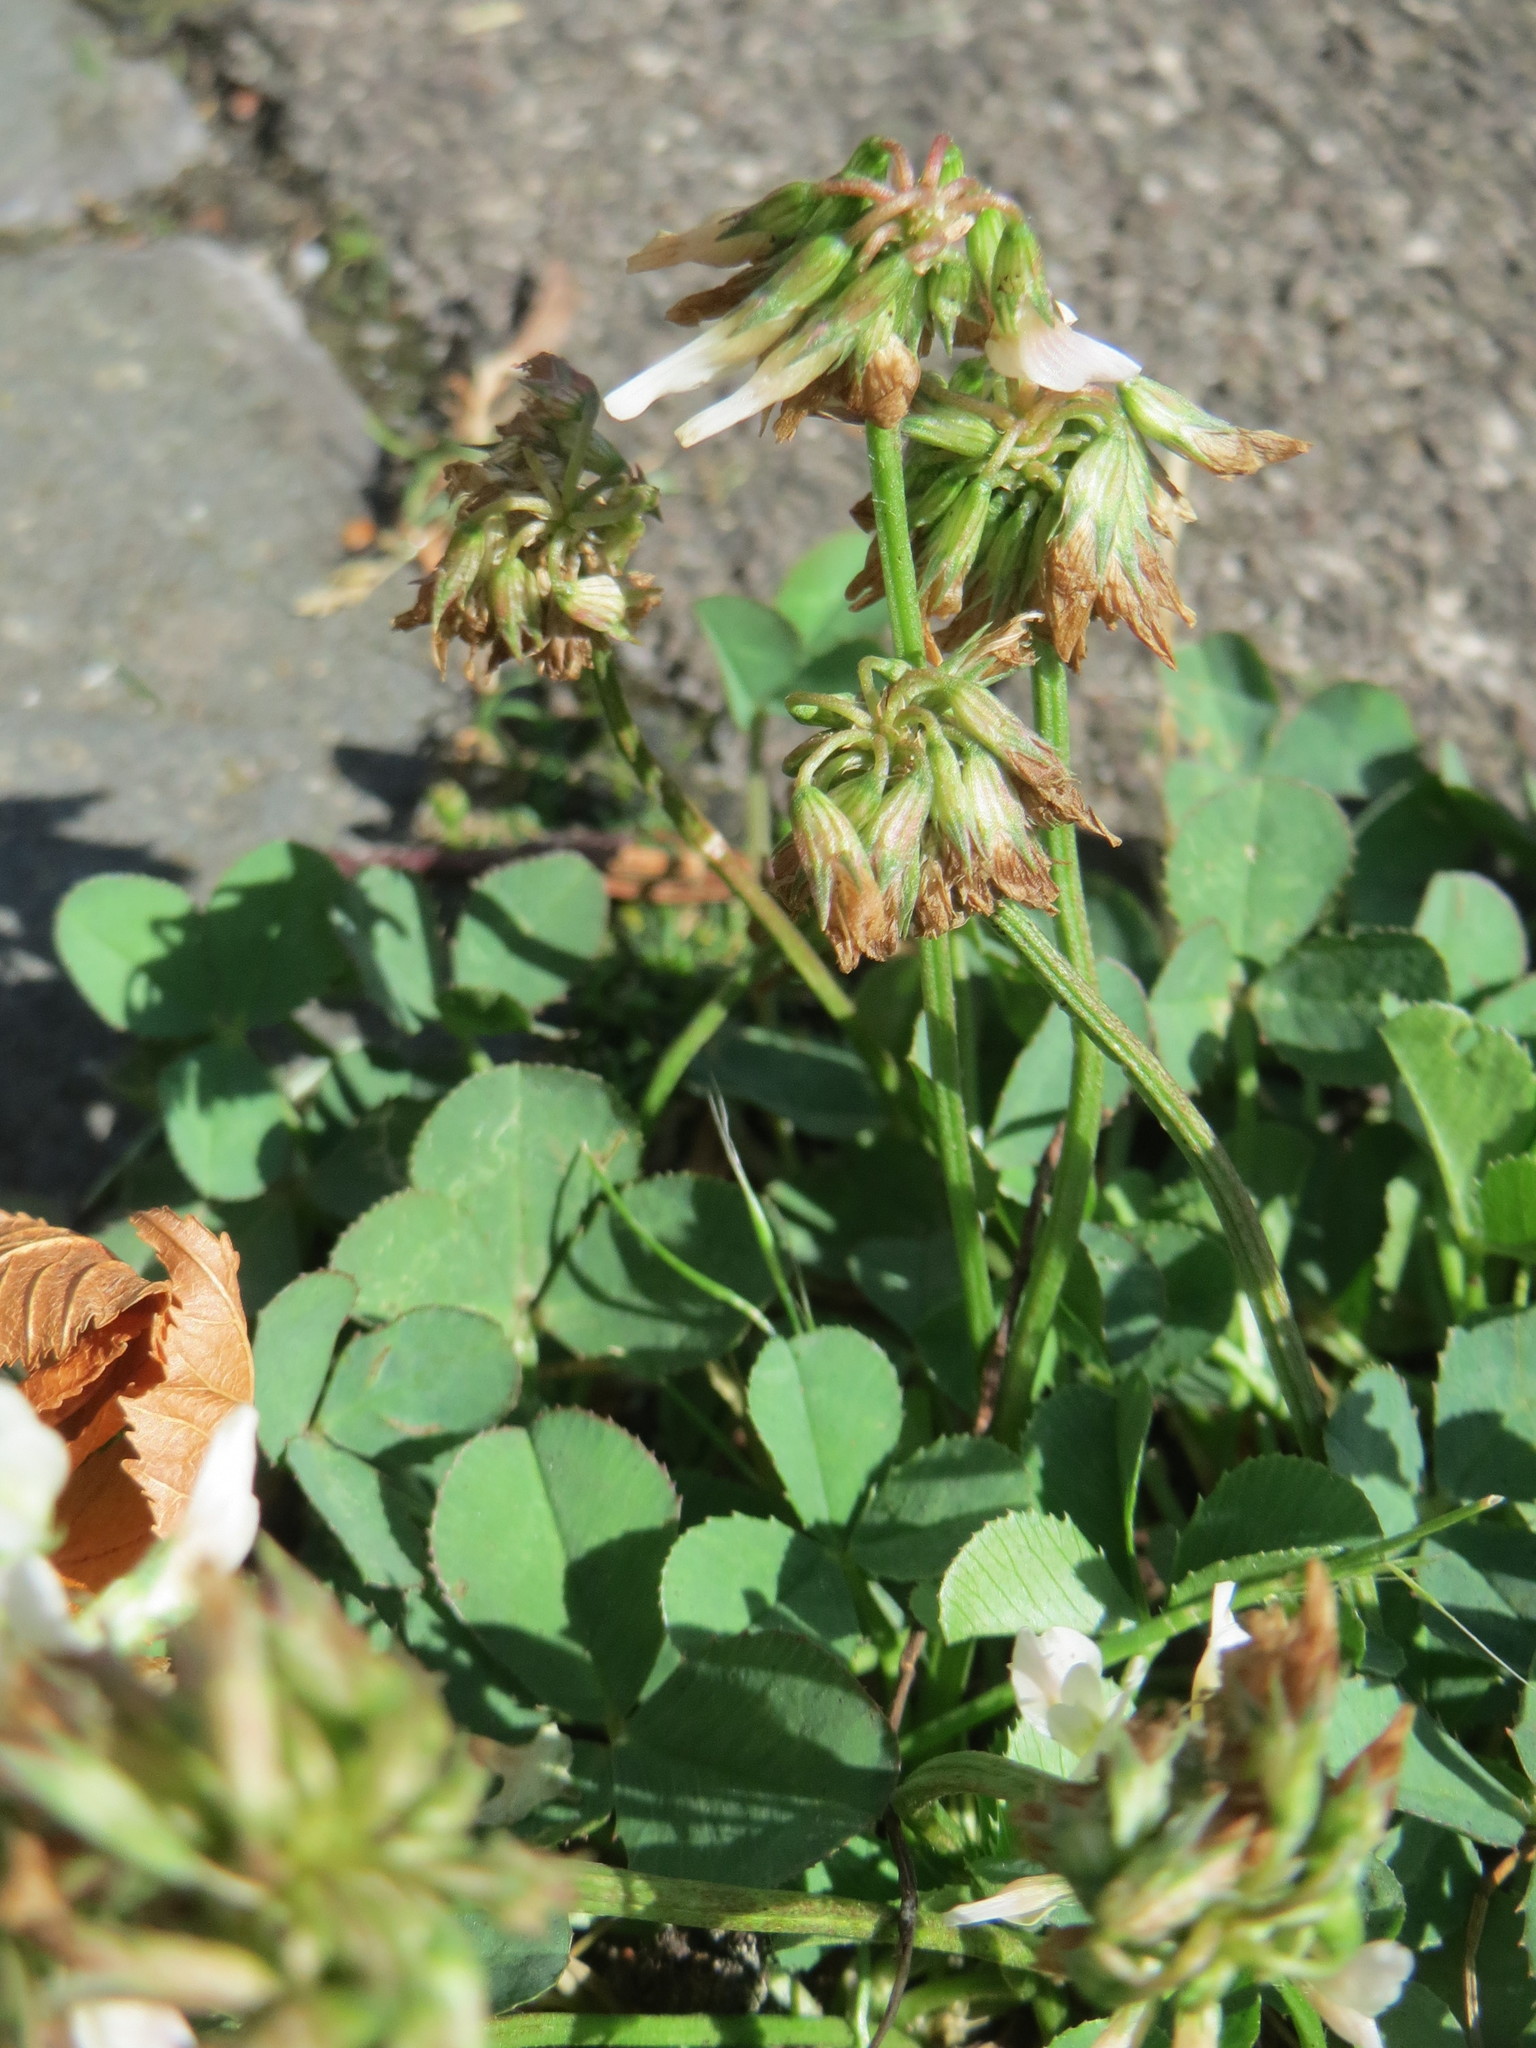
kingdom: Plantae
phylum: Tracheophyta
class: Magnoliopsida
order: Fabales
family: Fabaceae
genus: Trifolium
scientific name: Trifolium repens
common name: White clover
